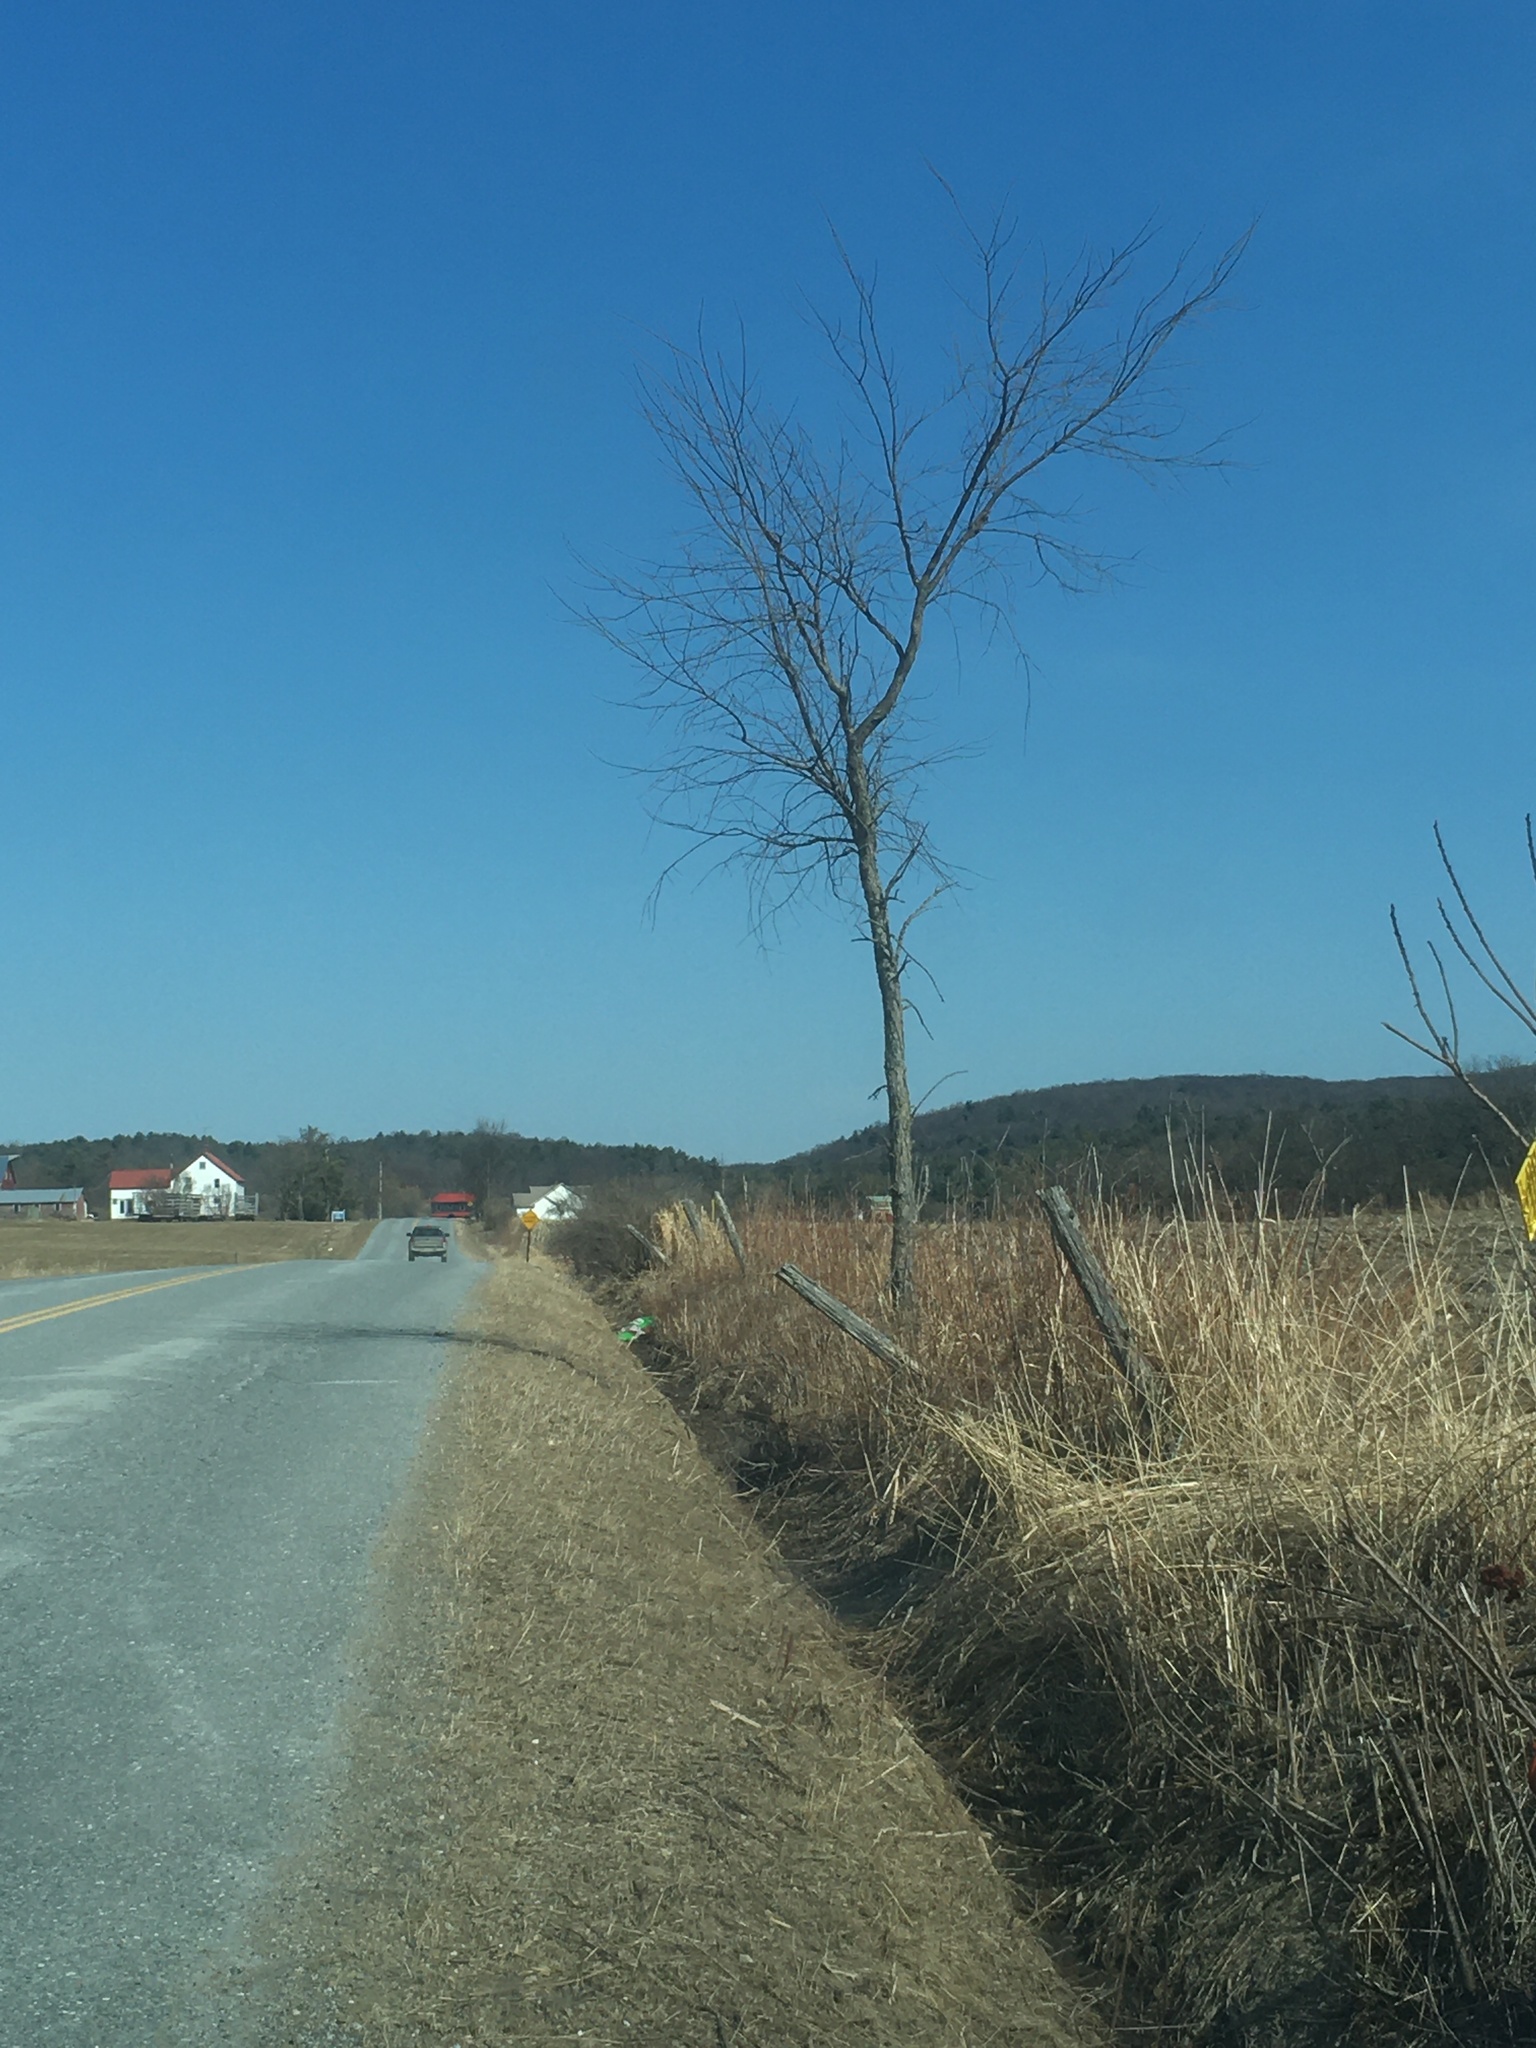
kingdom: Plantae
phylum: Tracheophyta
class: Magnoliopsida
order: Rosales
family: Ulmaceae
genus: Ulmus
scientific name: Ulmus americana
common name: American elm
